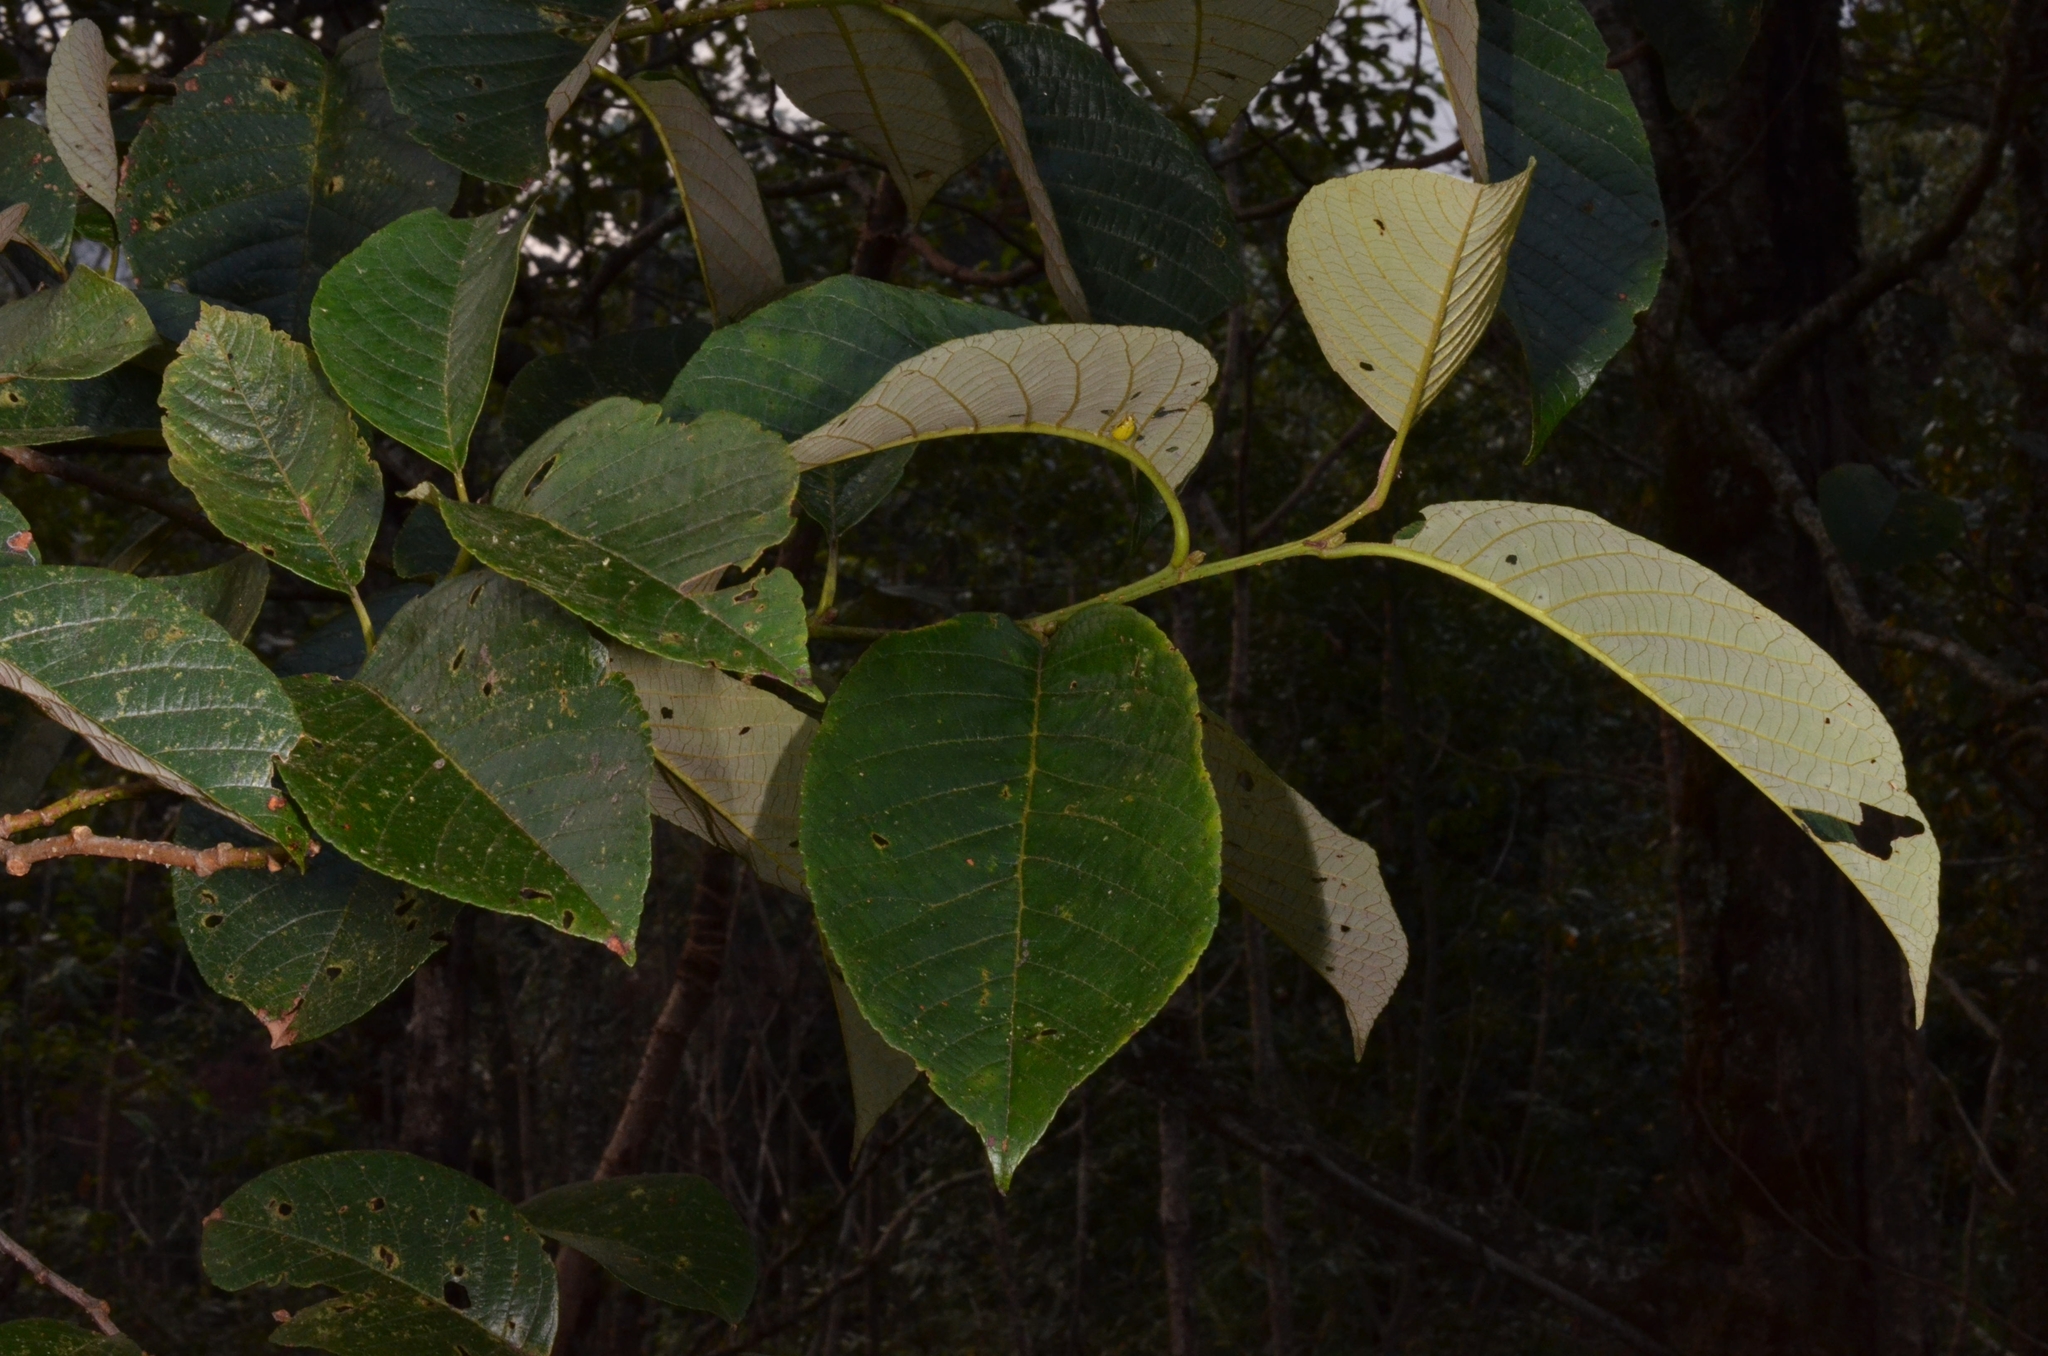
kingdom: Plantae
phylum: Tracheophyta
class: Magnoliopsida
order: Fagales
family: Betulaceae
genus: Alnus
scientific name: Alnus nepalensis
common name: Nepal alder
